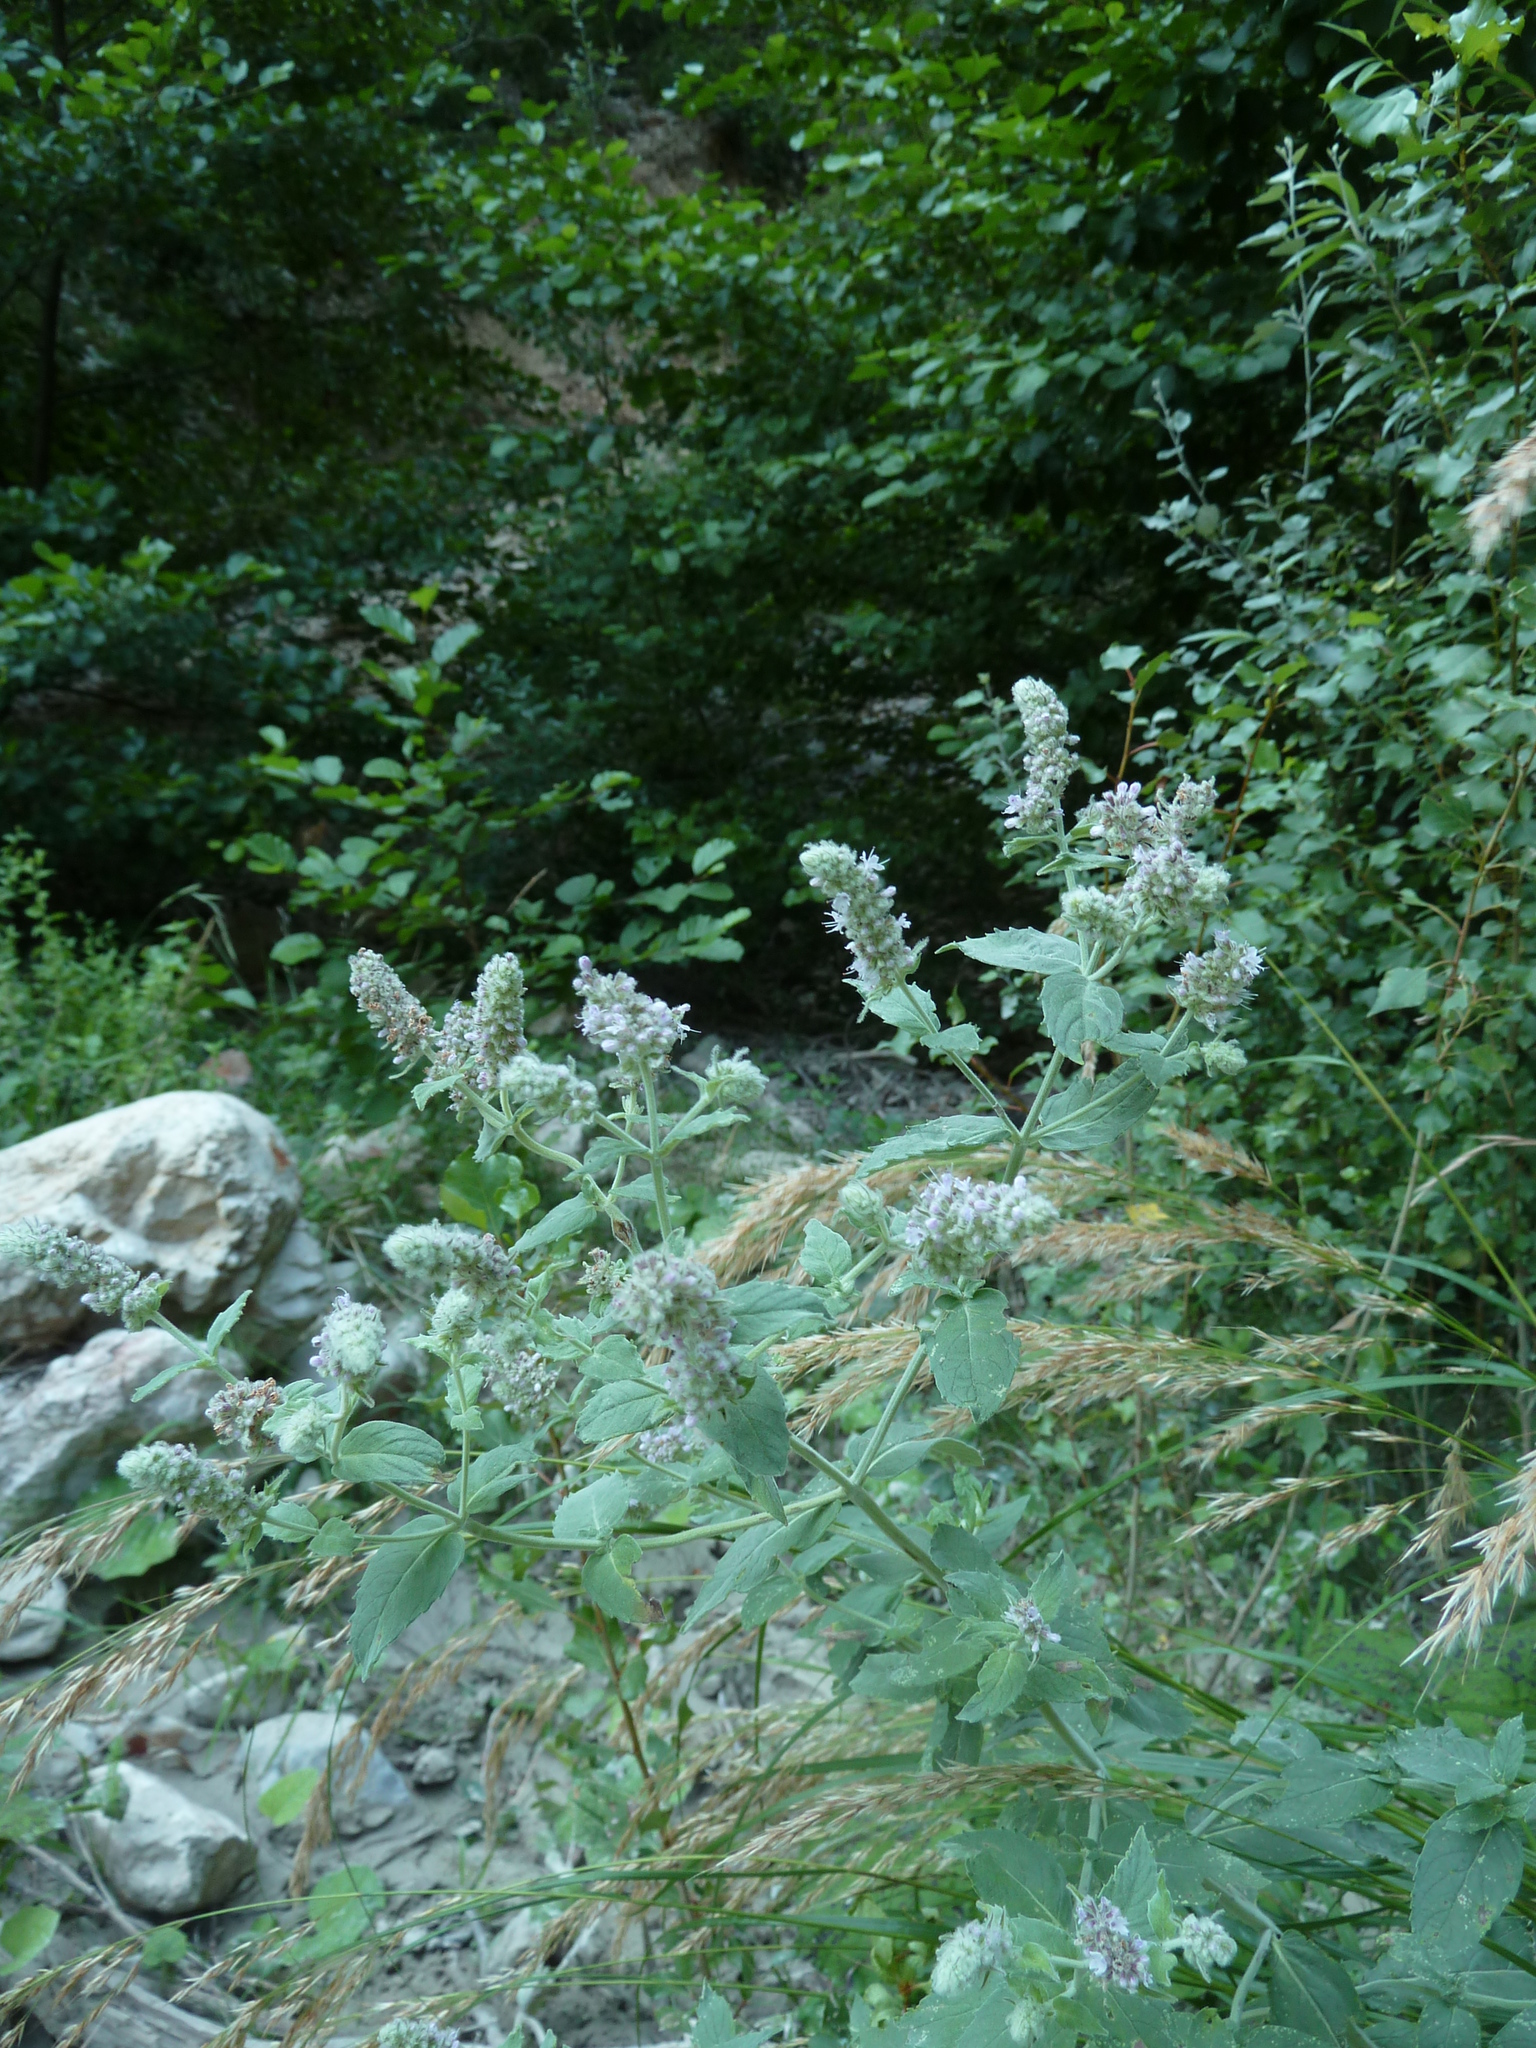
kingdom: Plantae
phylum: Tracheophyta
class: Magnoliopsida
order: Lamiales
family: Lamiaceae
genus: Mentha
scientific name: Mentha longifolia
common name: Horse mint
